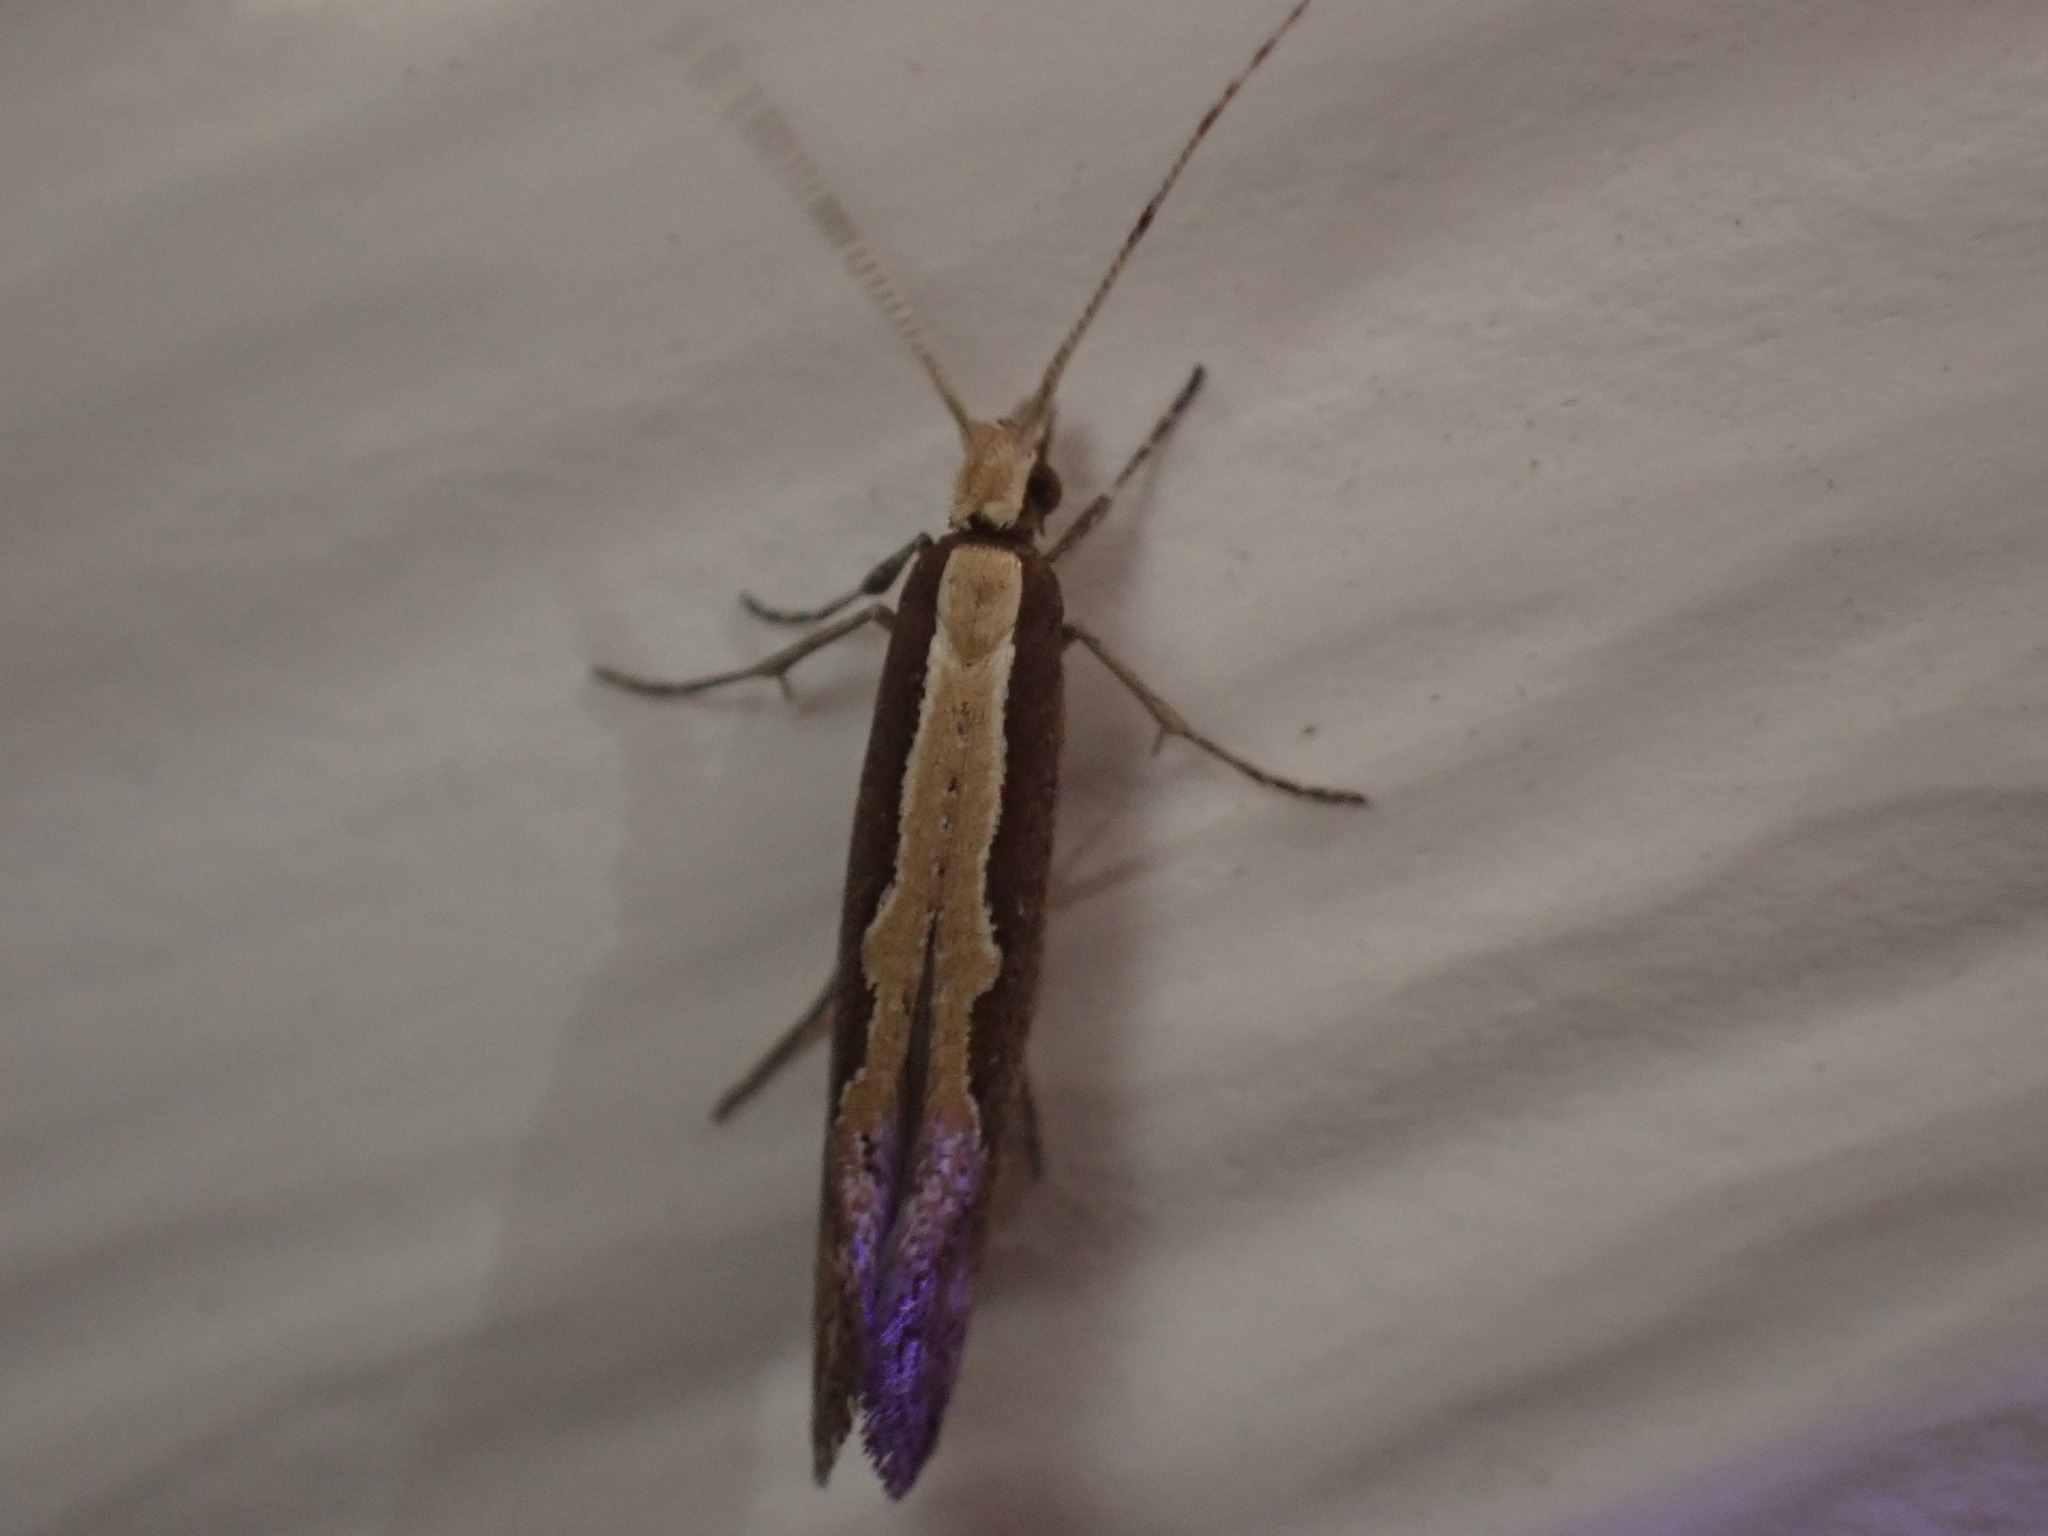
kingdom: Animalia
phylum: Arthropoda
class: Insecta
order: Lepidoptera
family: Plutellidae
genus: Plutella
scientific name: Plutella xylostella
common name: Diamond-back moth
